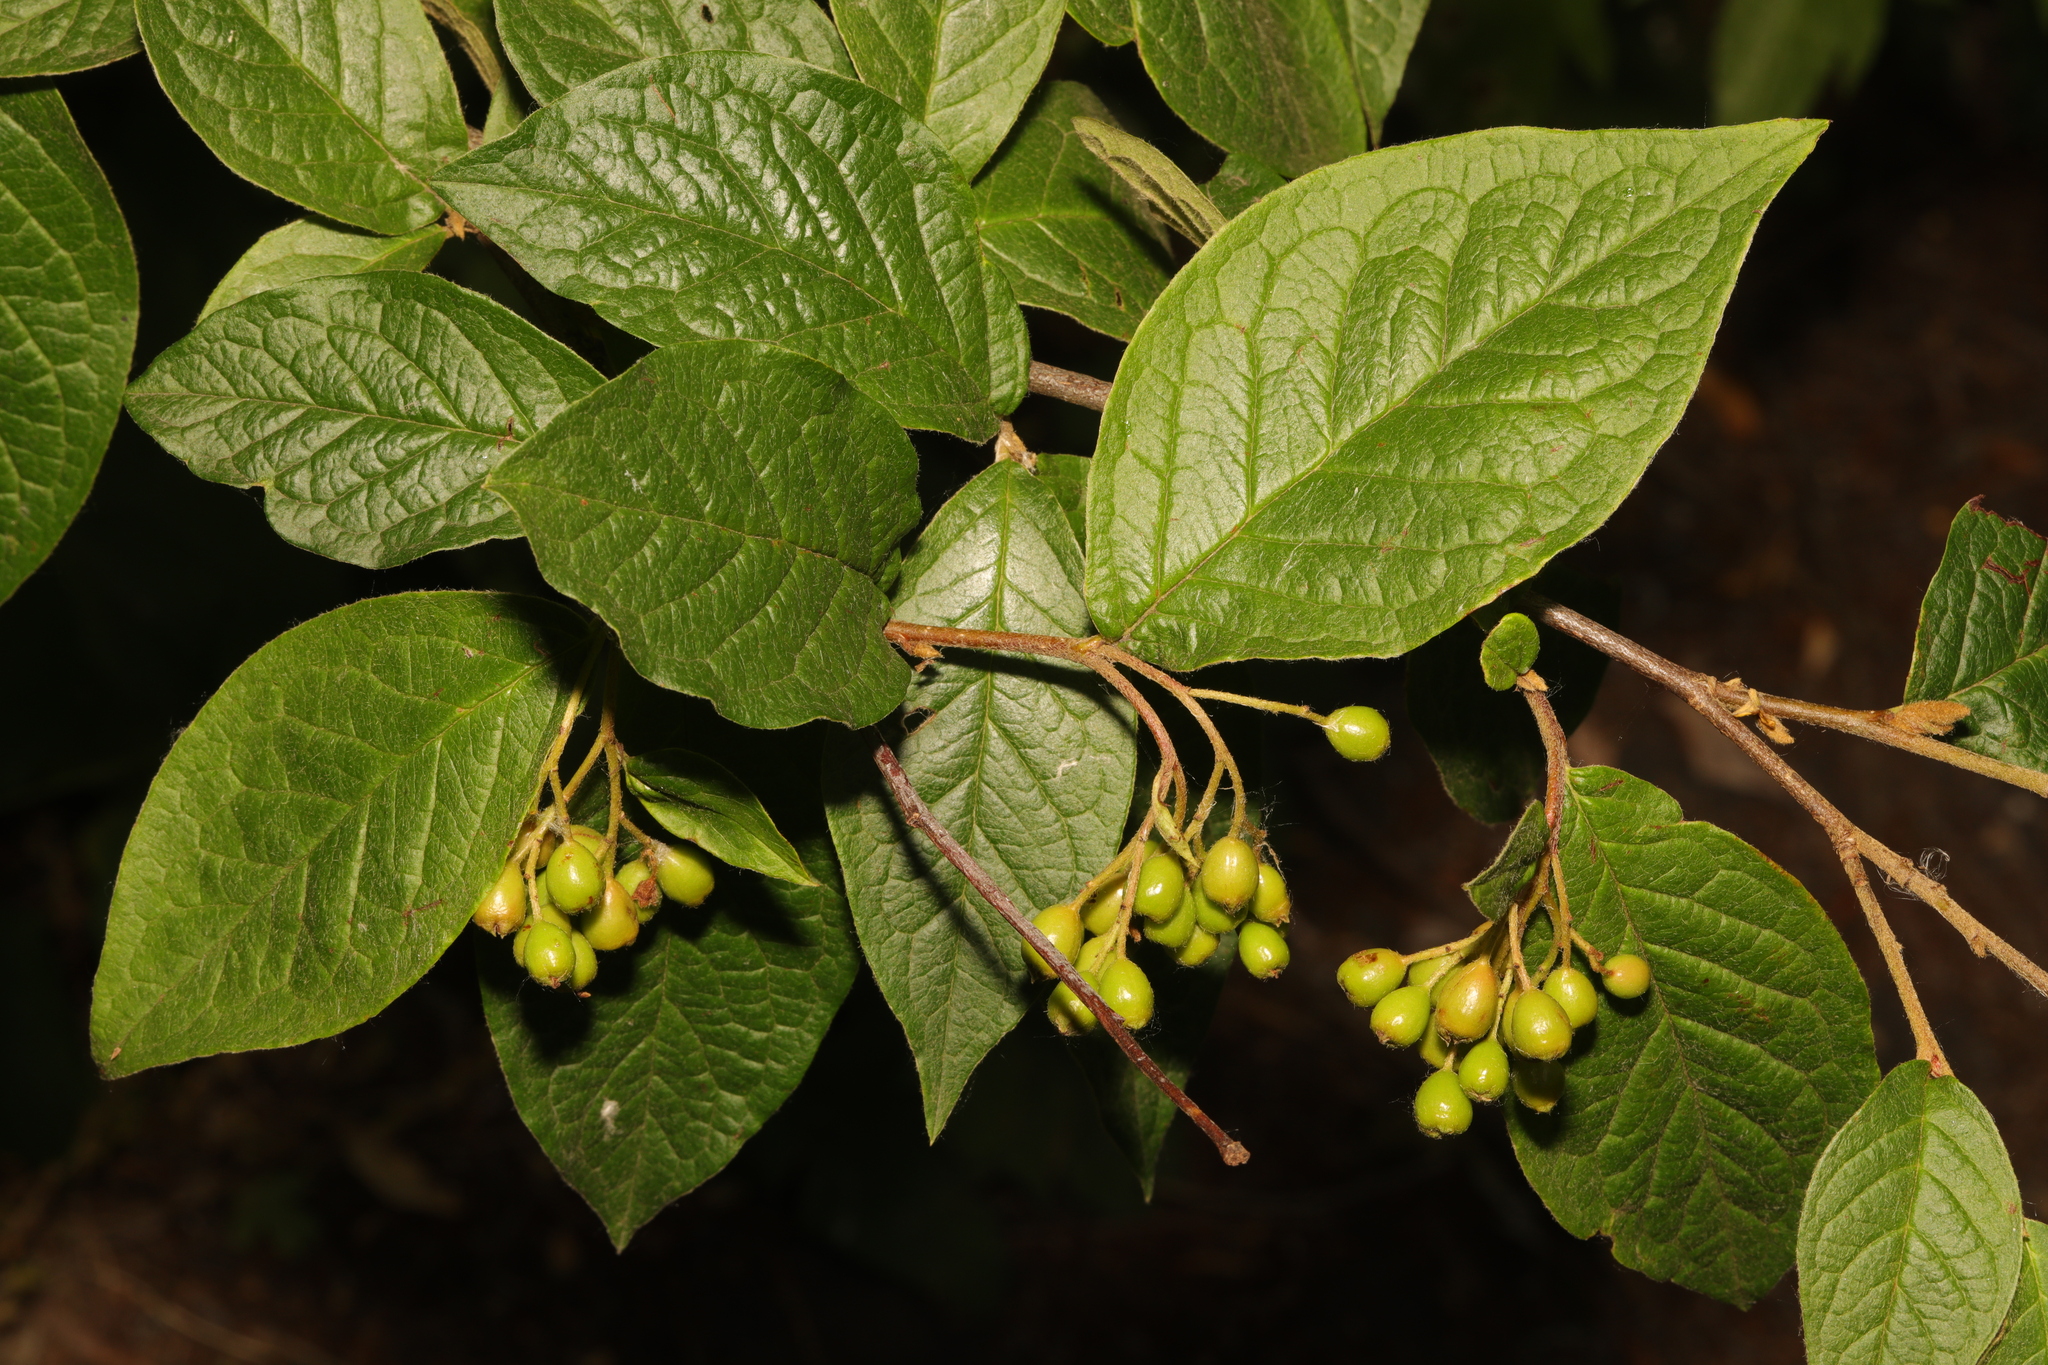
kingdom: Plantae
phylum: Tracheophyta
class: Magnoliopsida
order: Rosales
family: Rosaceae
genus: Cotoneaster
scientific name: Cotoneaster bullatus
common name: Hollyberry cotoneaster
